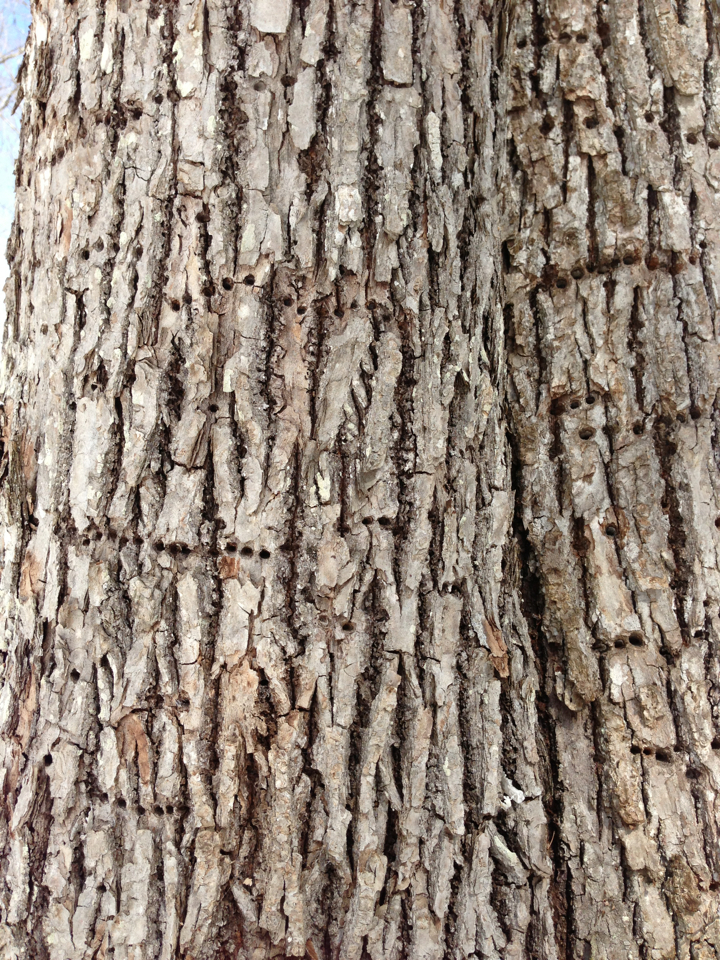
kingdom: Animalia
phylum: Chordata
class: Aves
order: Piciformes
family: Picidae
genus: Sphyrapicus
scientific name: Sphyrapicus varius
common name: Yellow-bellied sapsucker
